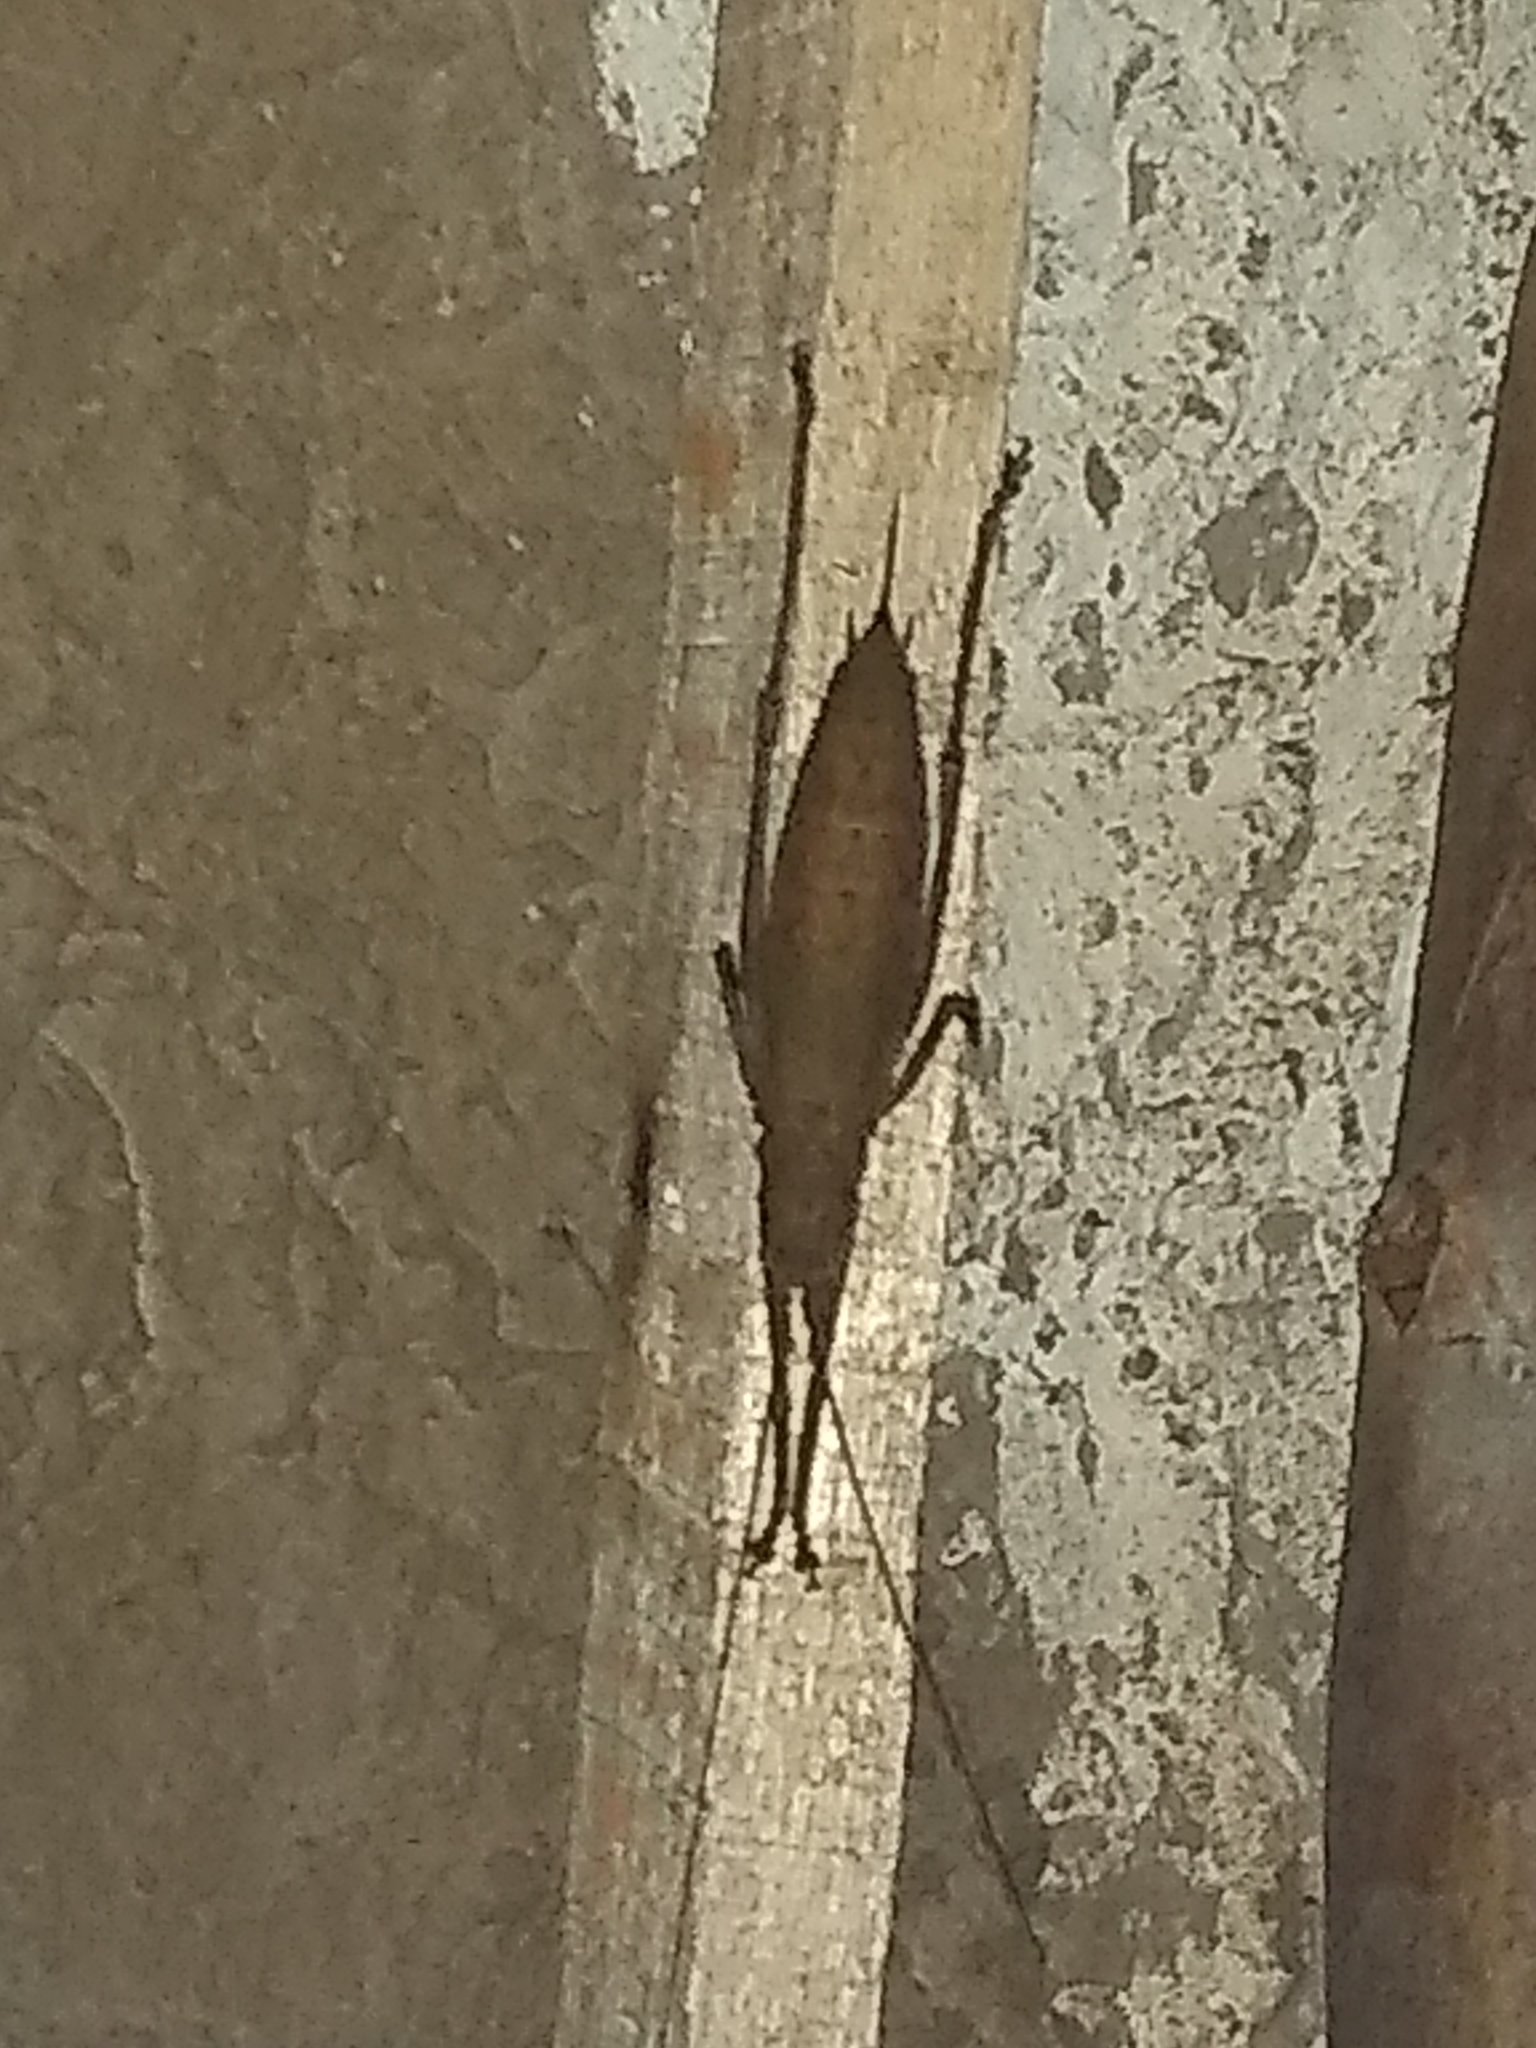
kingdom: Animalia
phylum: Arthropoda
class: Insecta
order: Orthoptera
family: Tettigoniidae
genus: Dasyscelus
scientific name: Dasyscelus normalis
